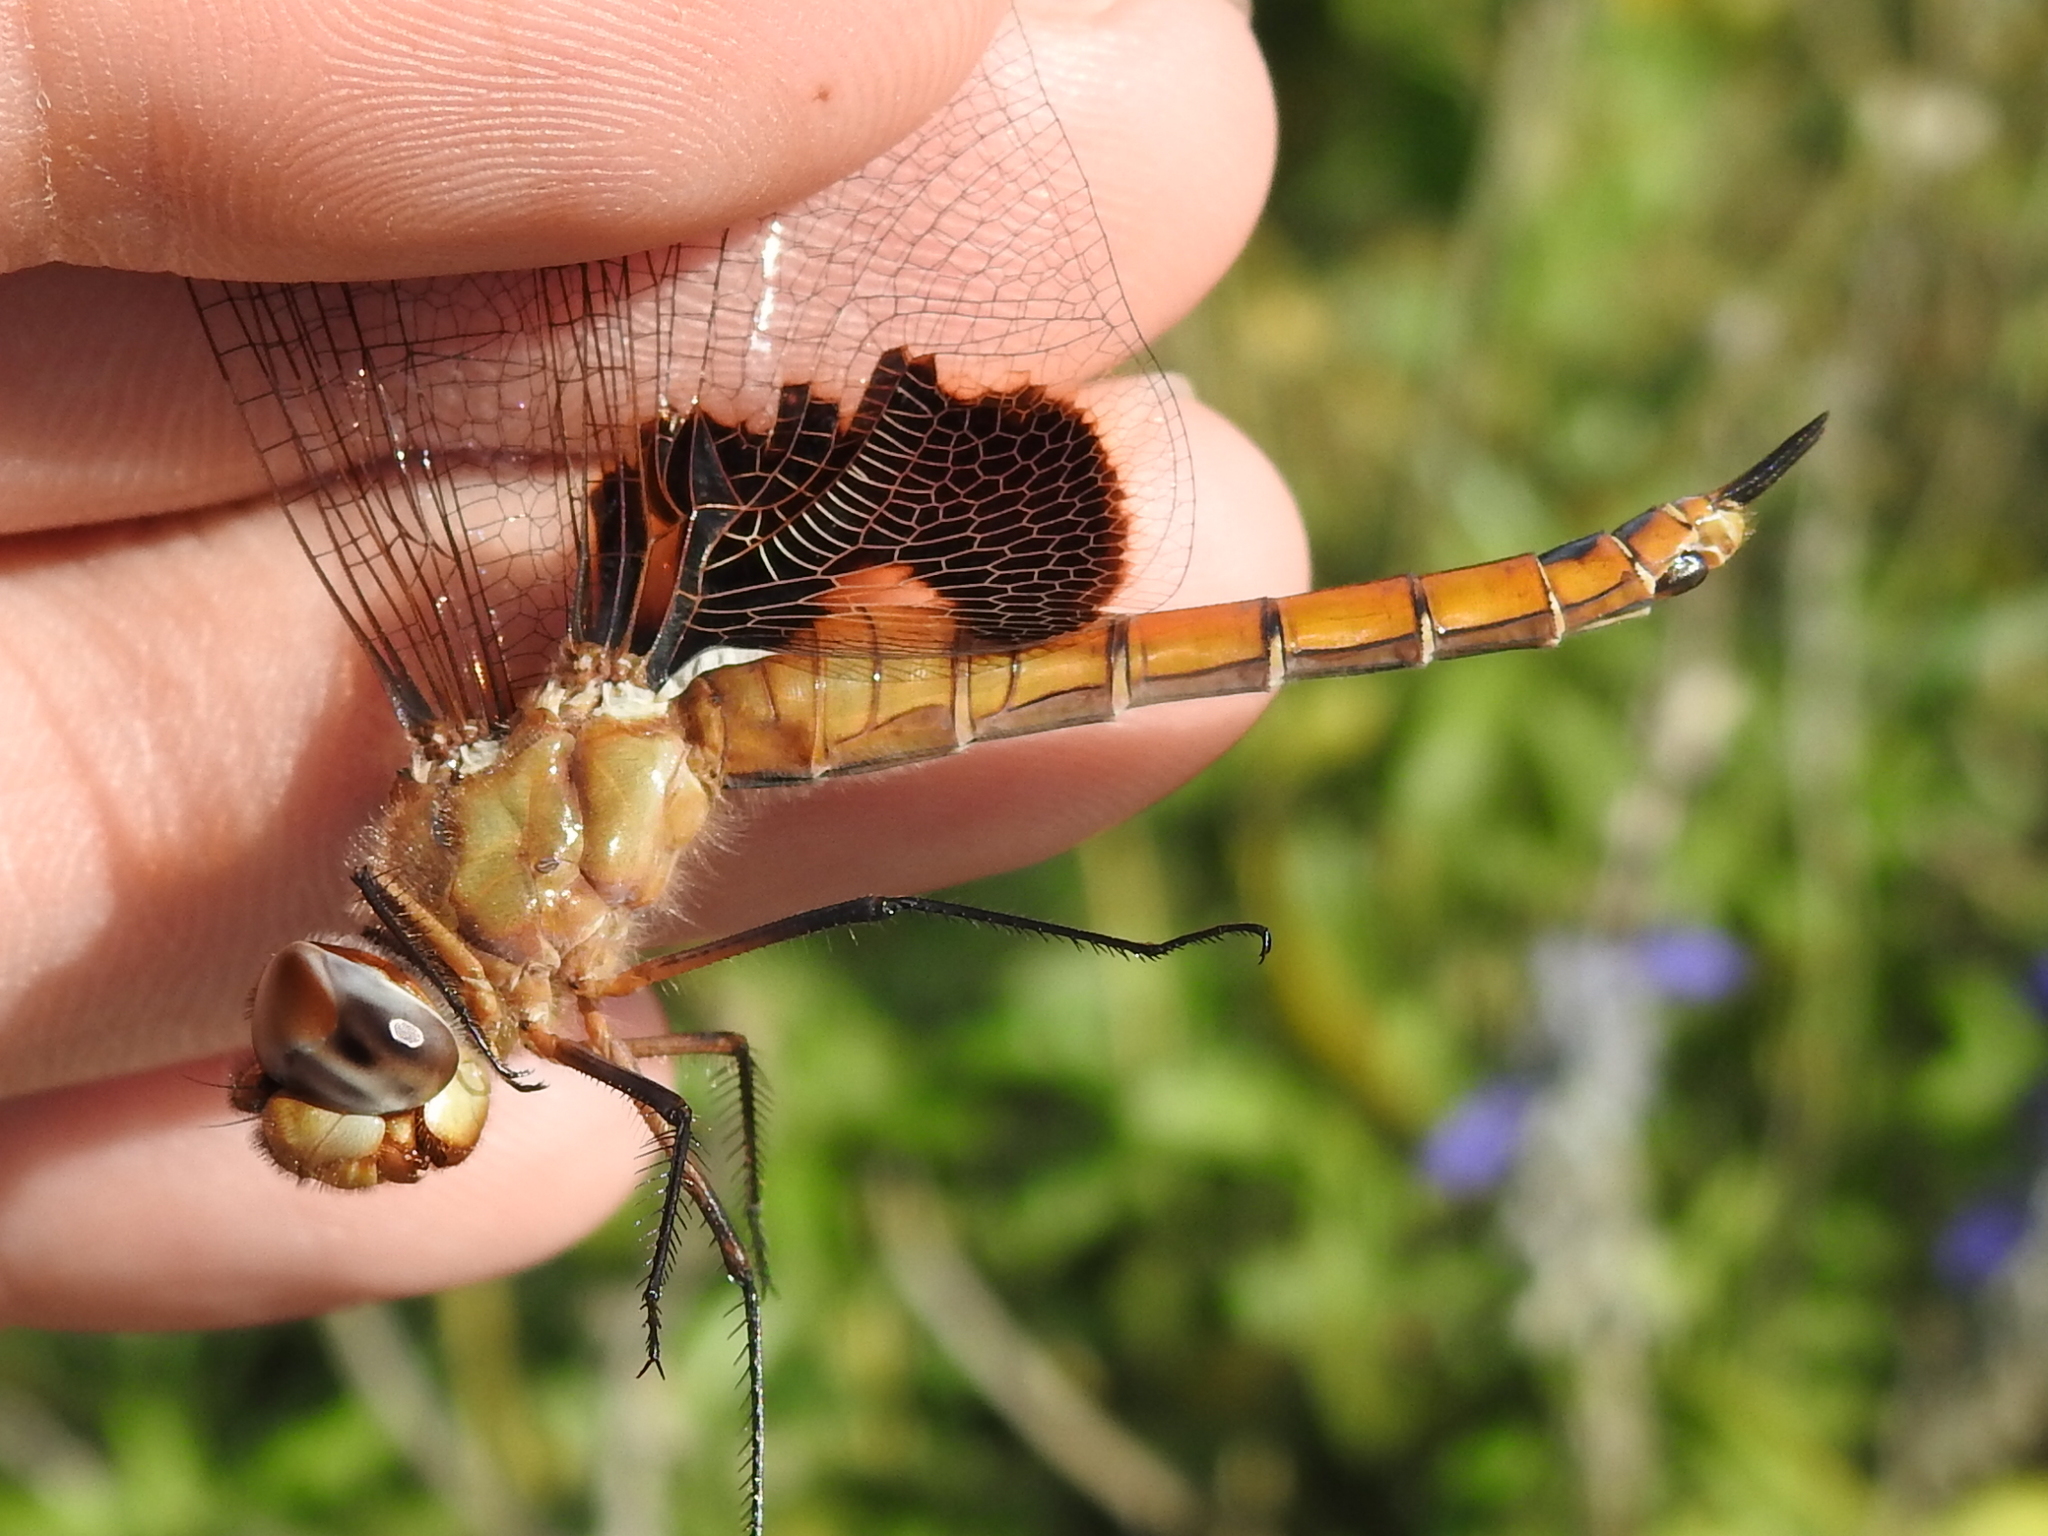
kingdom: Animalia
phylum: Arthropoda
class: Insecta
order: Odonata
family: Libellulidae
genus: Tramea
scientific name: Tramea onusta
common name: Red saddlebags
